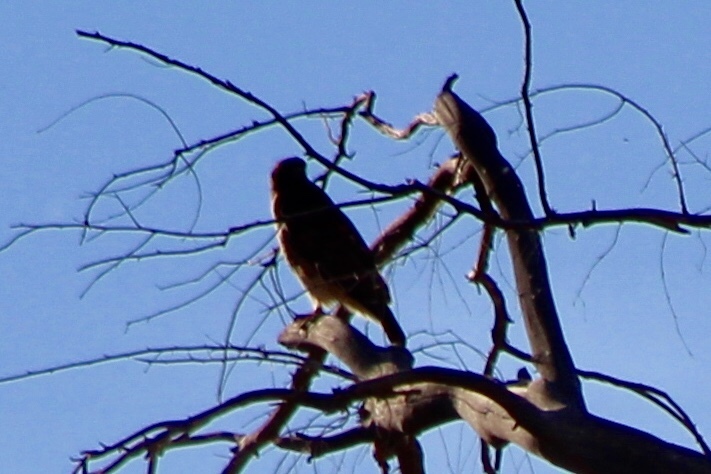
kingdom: Animalia
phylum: Chordata
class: Aves
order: Accipitriformes
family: Accipitridae
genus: Buteo
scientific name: Buteo jamaicensis
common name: Red-tailed hawk
